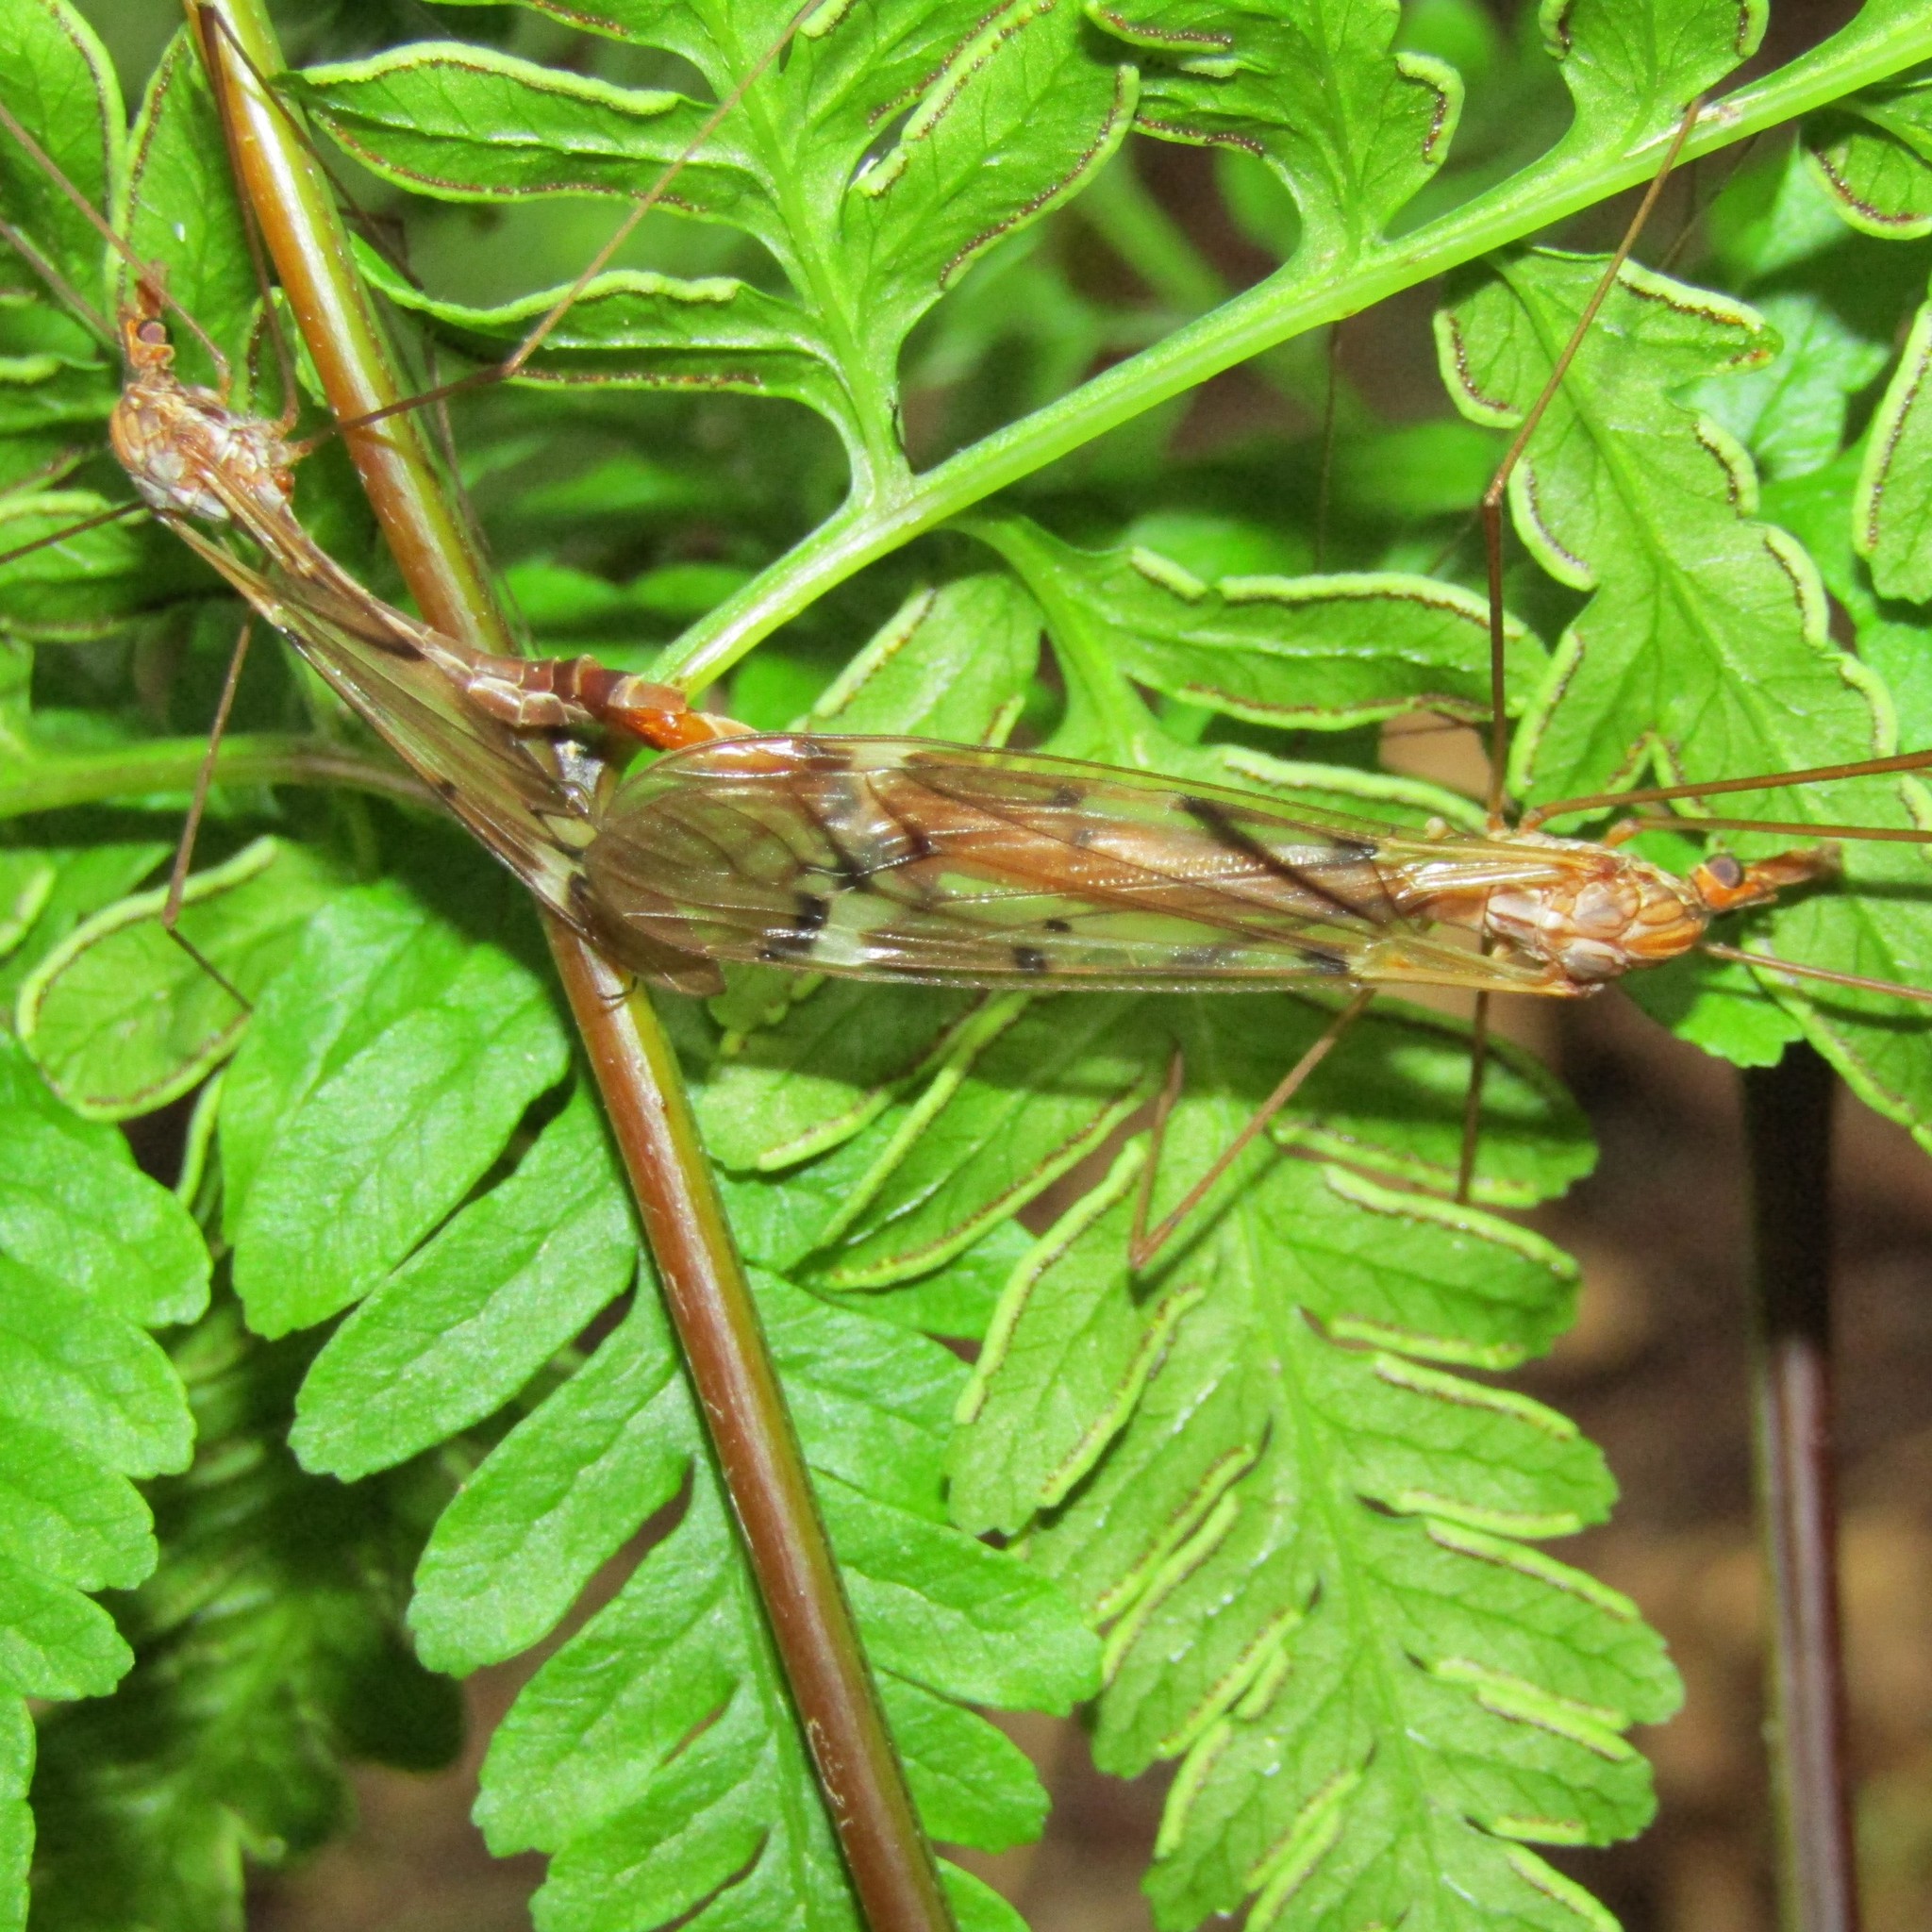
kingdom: Animalia
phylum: Arthropoda
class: Insecta
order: Diptera
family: Tipulidae
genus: Zelandotipula
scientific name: Zelandotipula fulva
